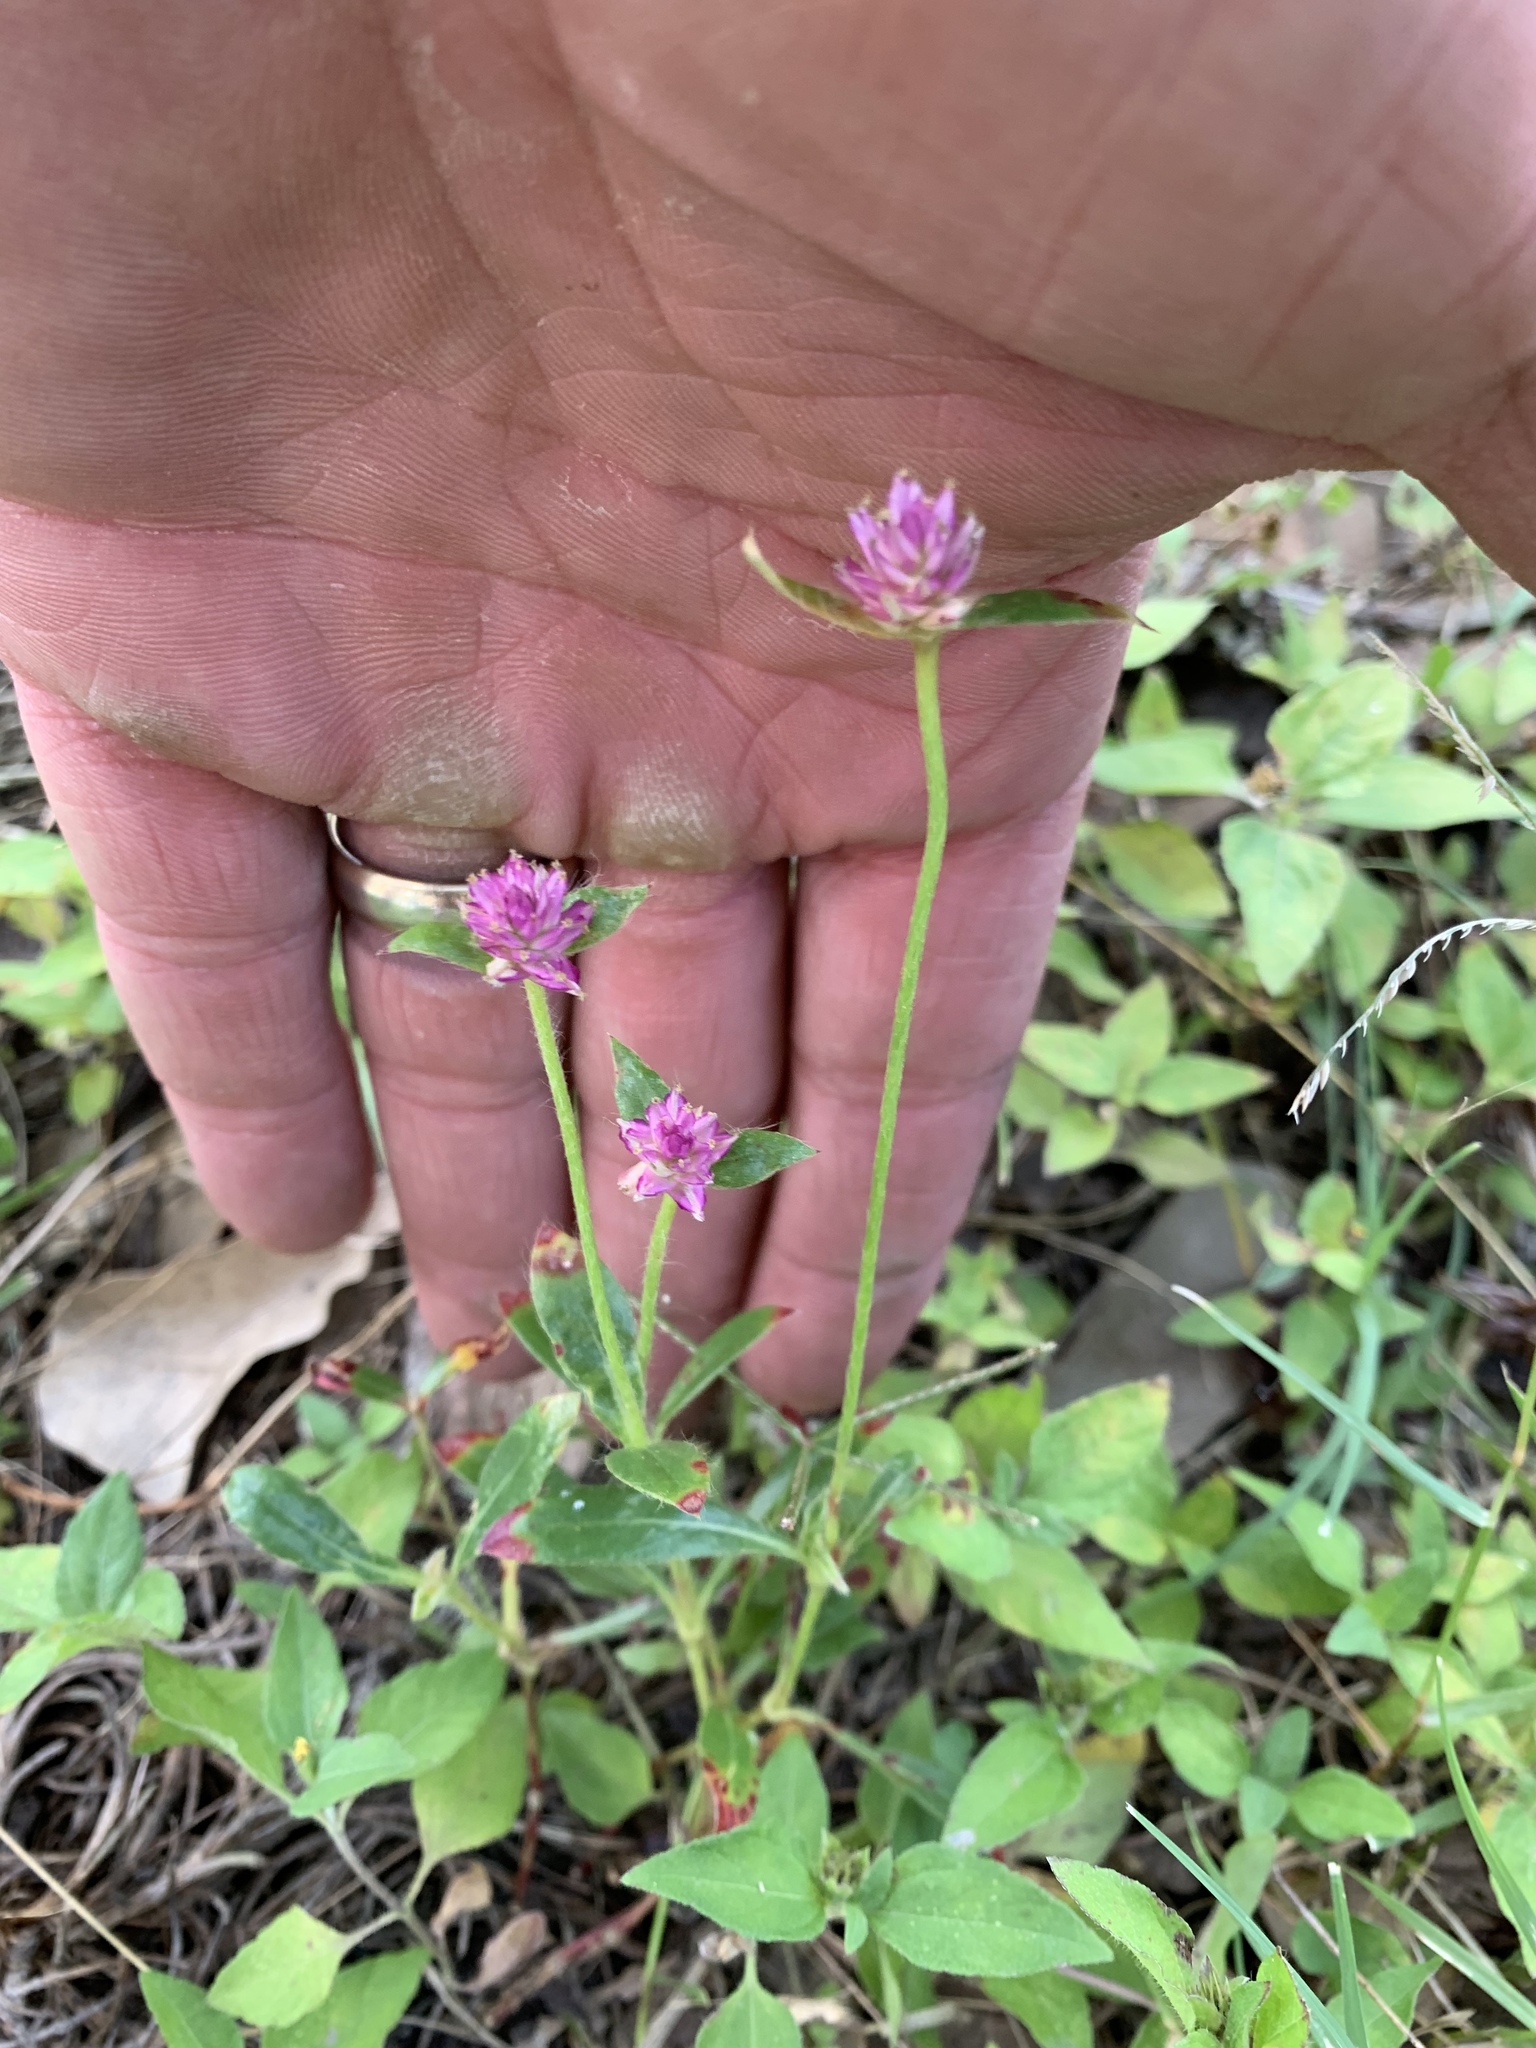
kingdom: Plantae
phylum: Tracheophyta
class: Magnoliopsida
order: Caryophyllales
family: Amaranthaceae
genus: Gomphrena
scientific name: Gomphrena serrata
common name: Arrasa con todo
